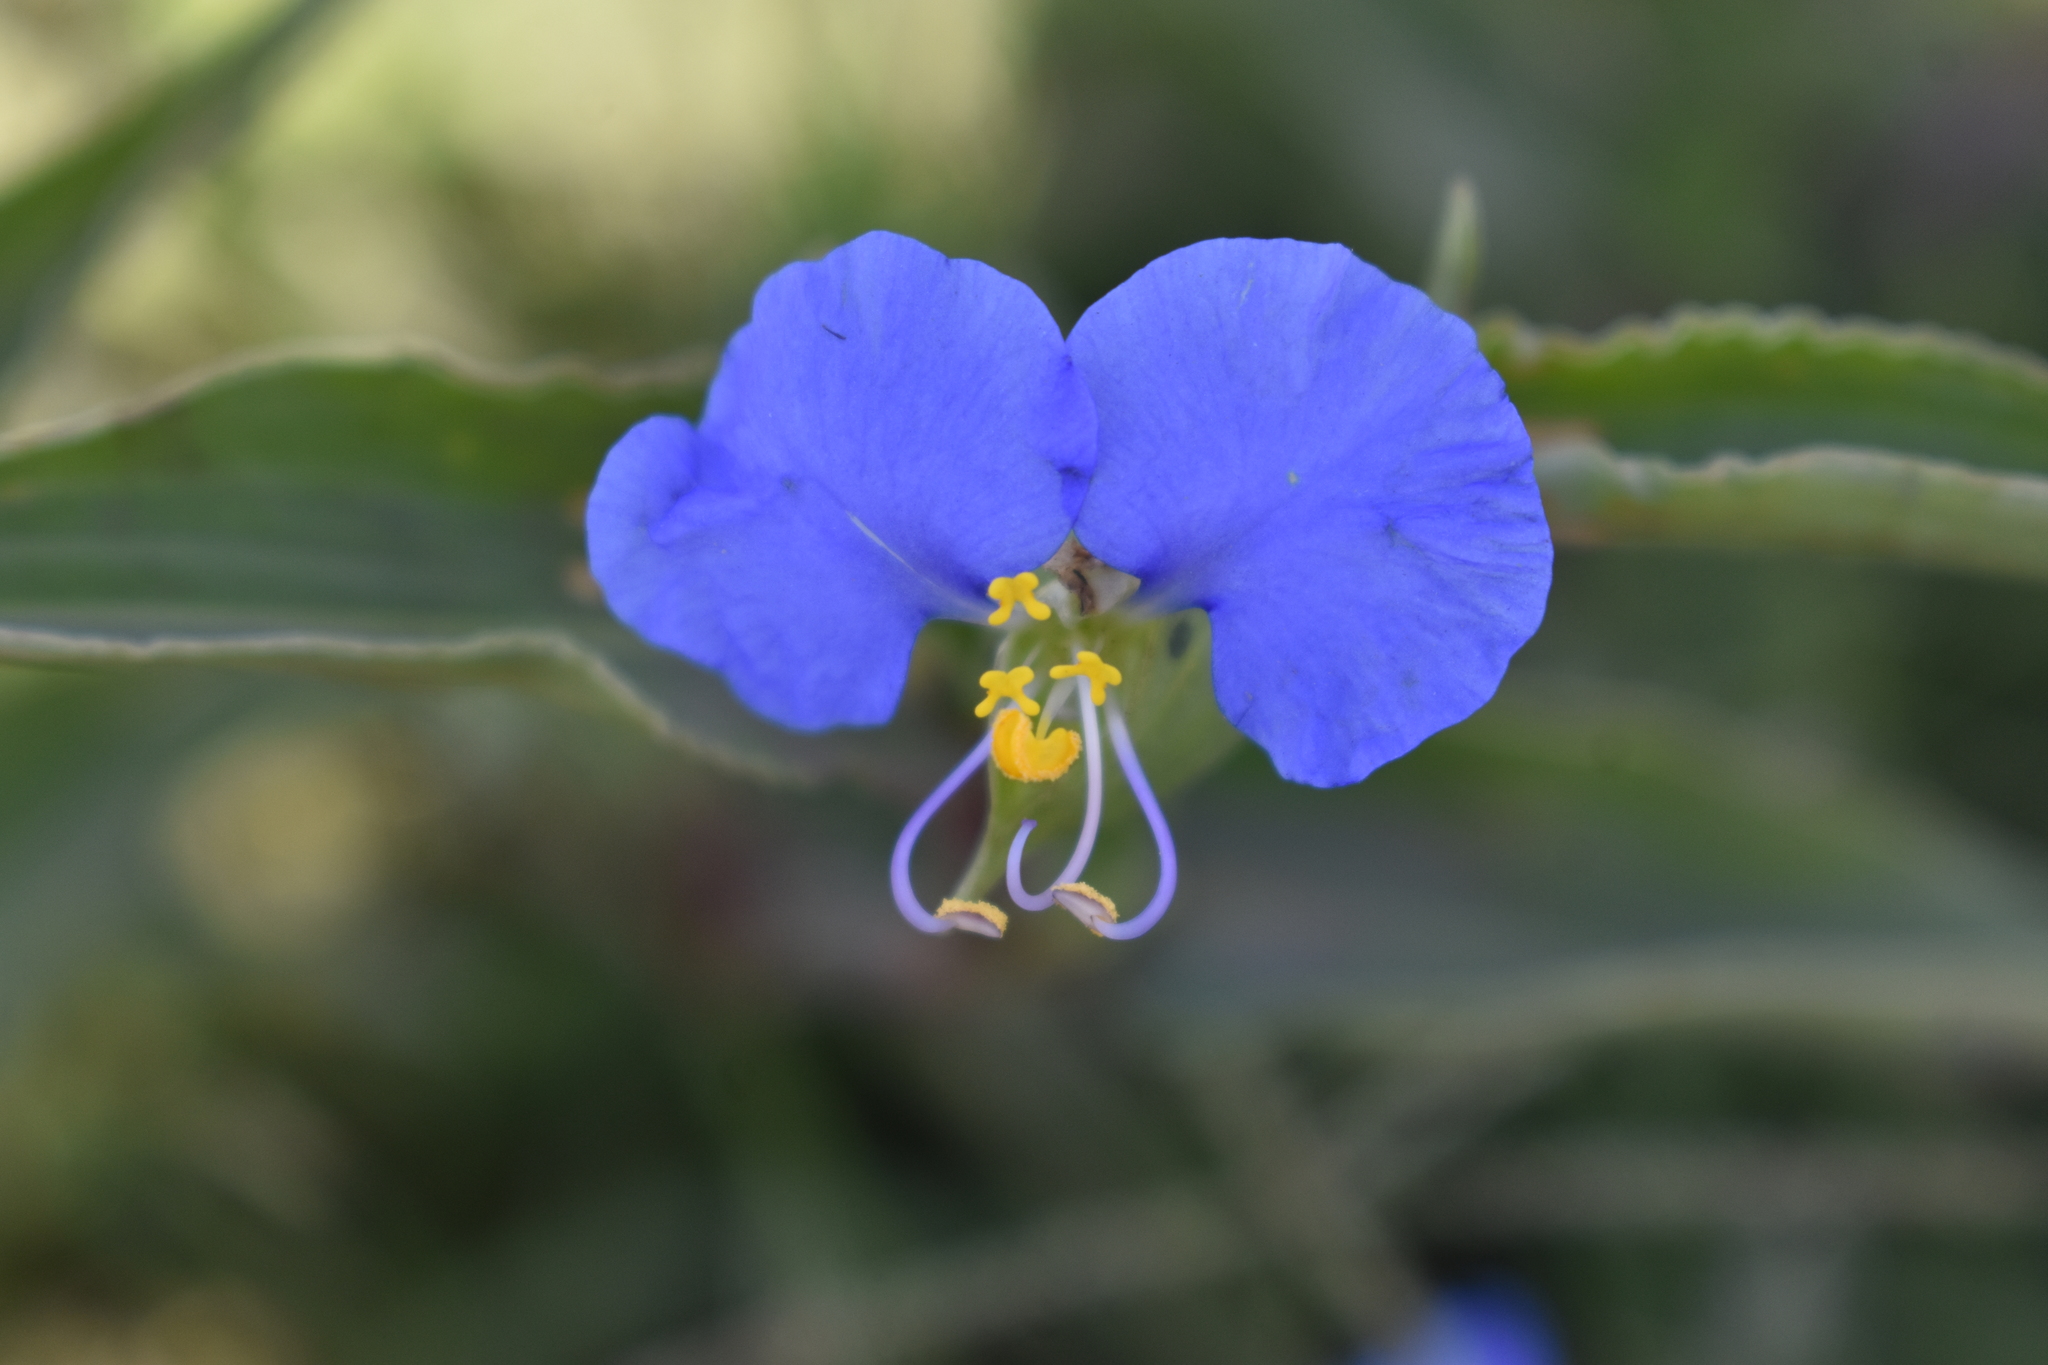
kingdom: Plantae
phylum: Tracheophyta
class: Liliopsida
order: Commelinales
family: Commelinaceae
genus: Commelina
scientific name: Commelina erecta
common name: Blousel blommetjie
